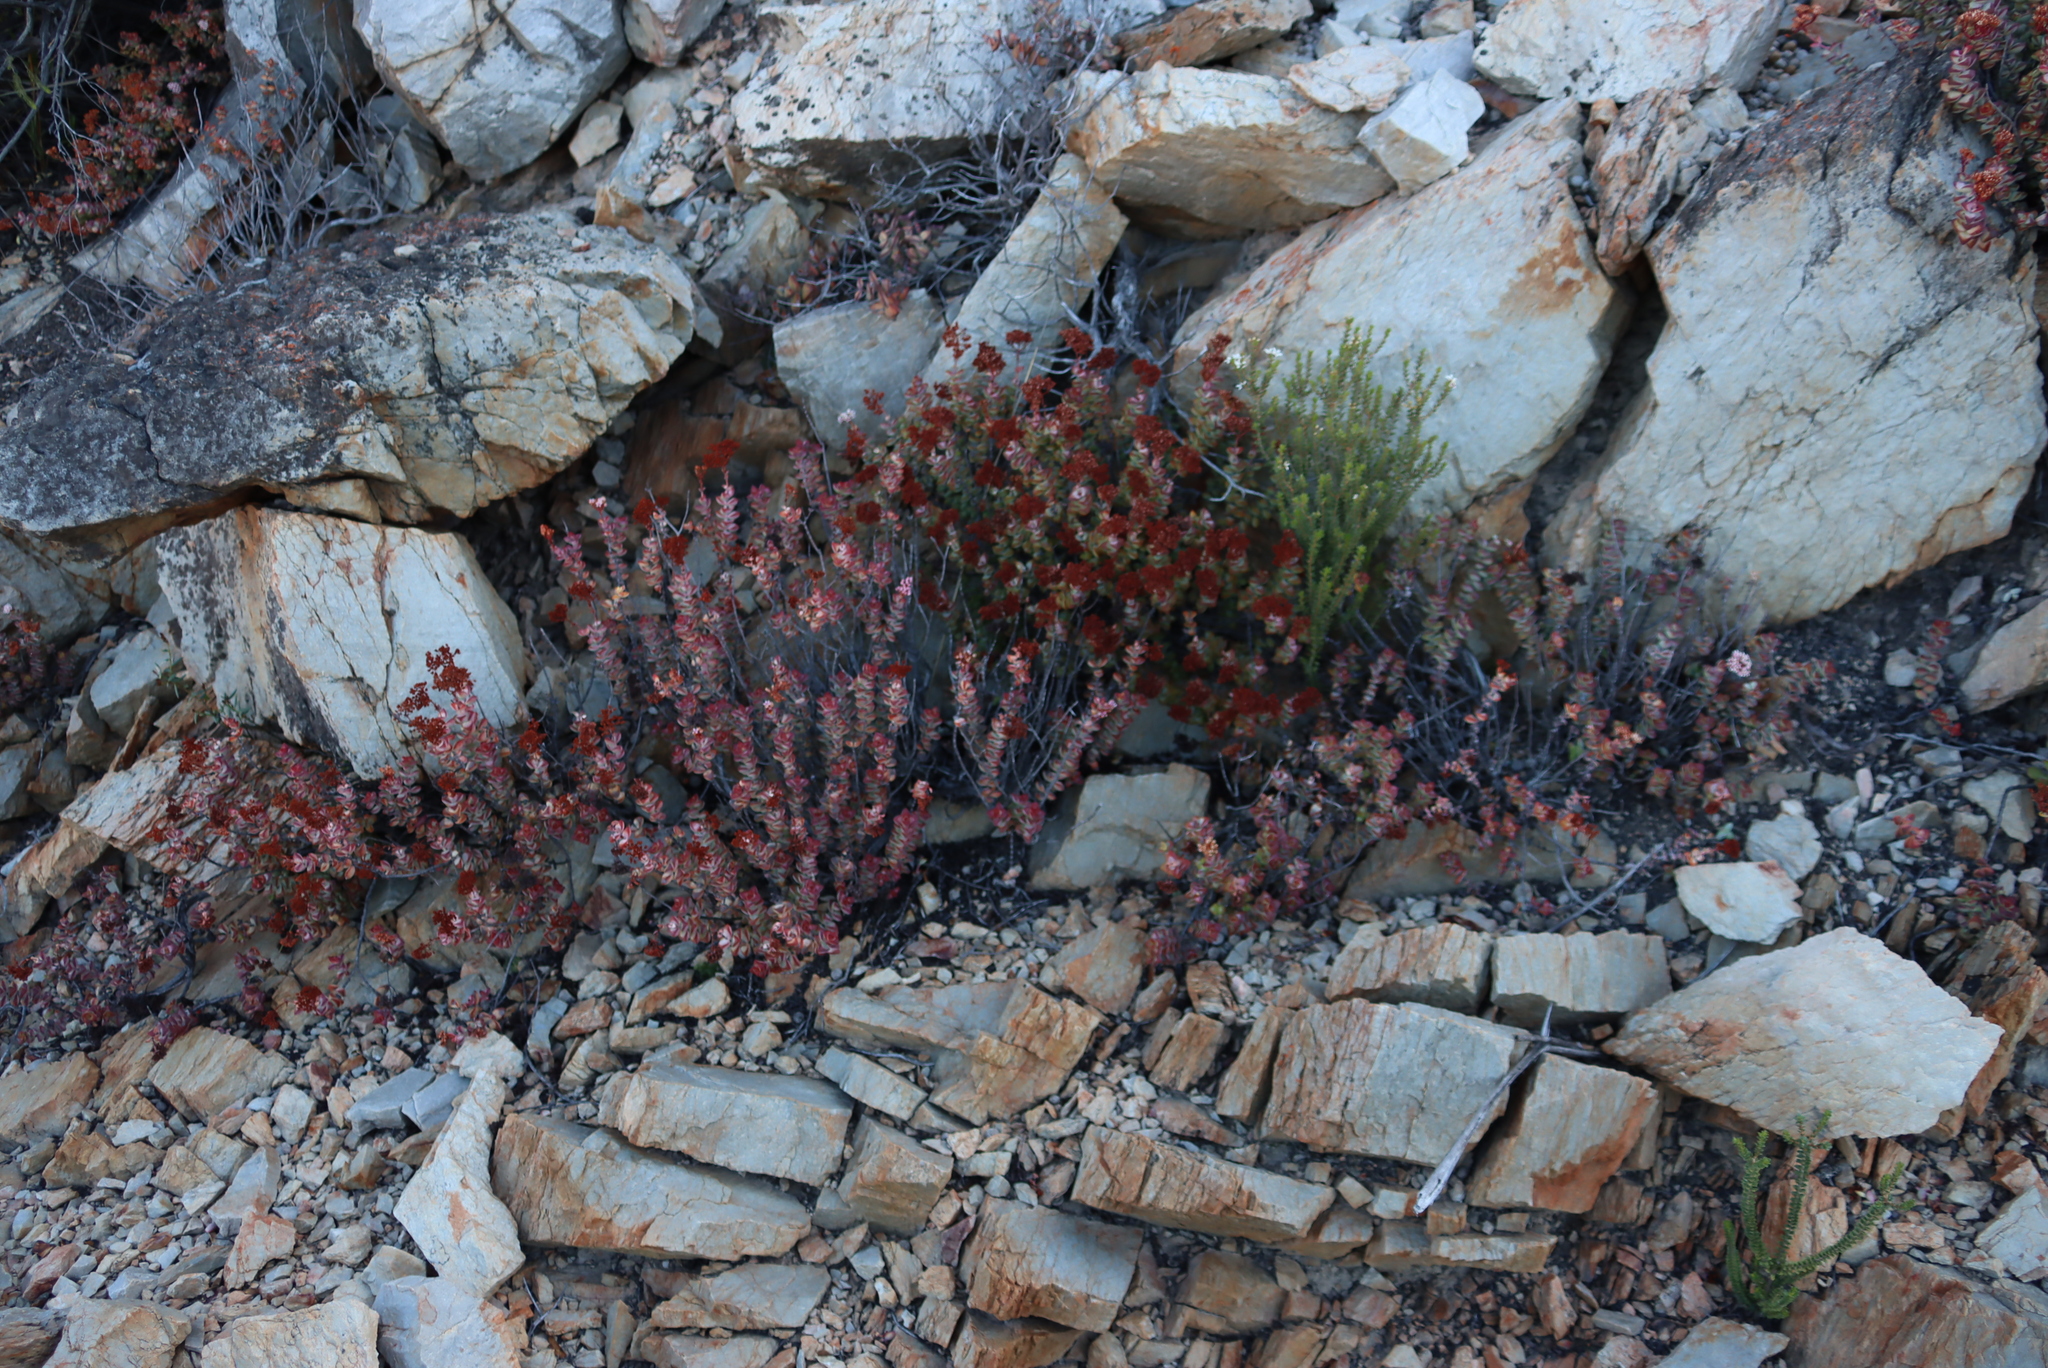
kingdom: Plantae
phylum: Tracheophyta
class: Magnoliopsida
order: Saxifragales
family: Crassulaceae
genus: Crassula
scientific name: Crassula rupestris
